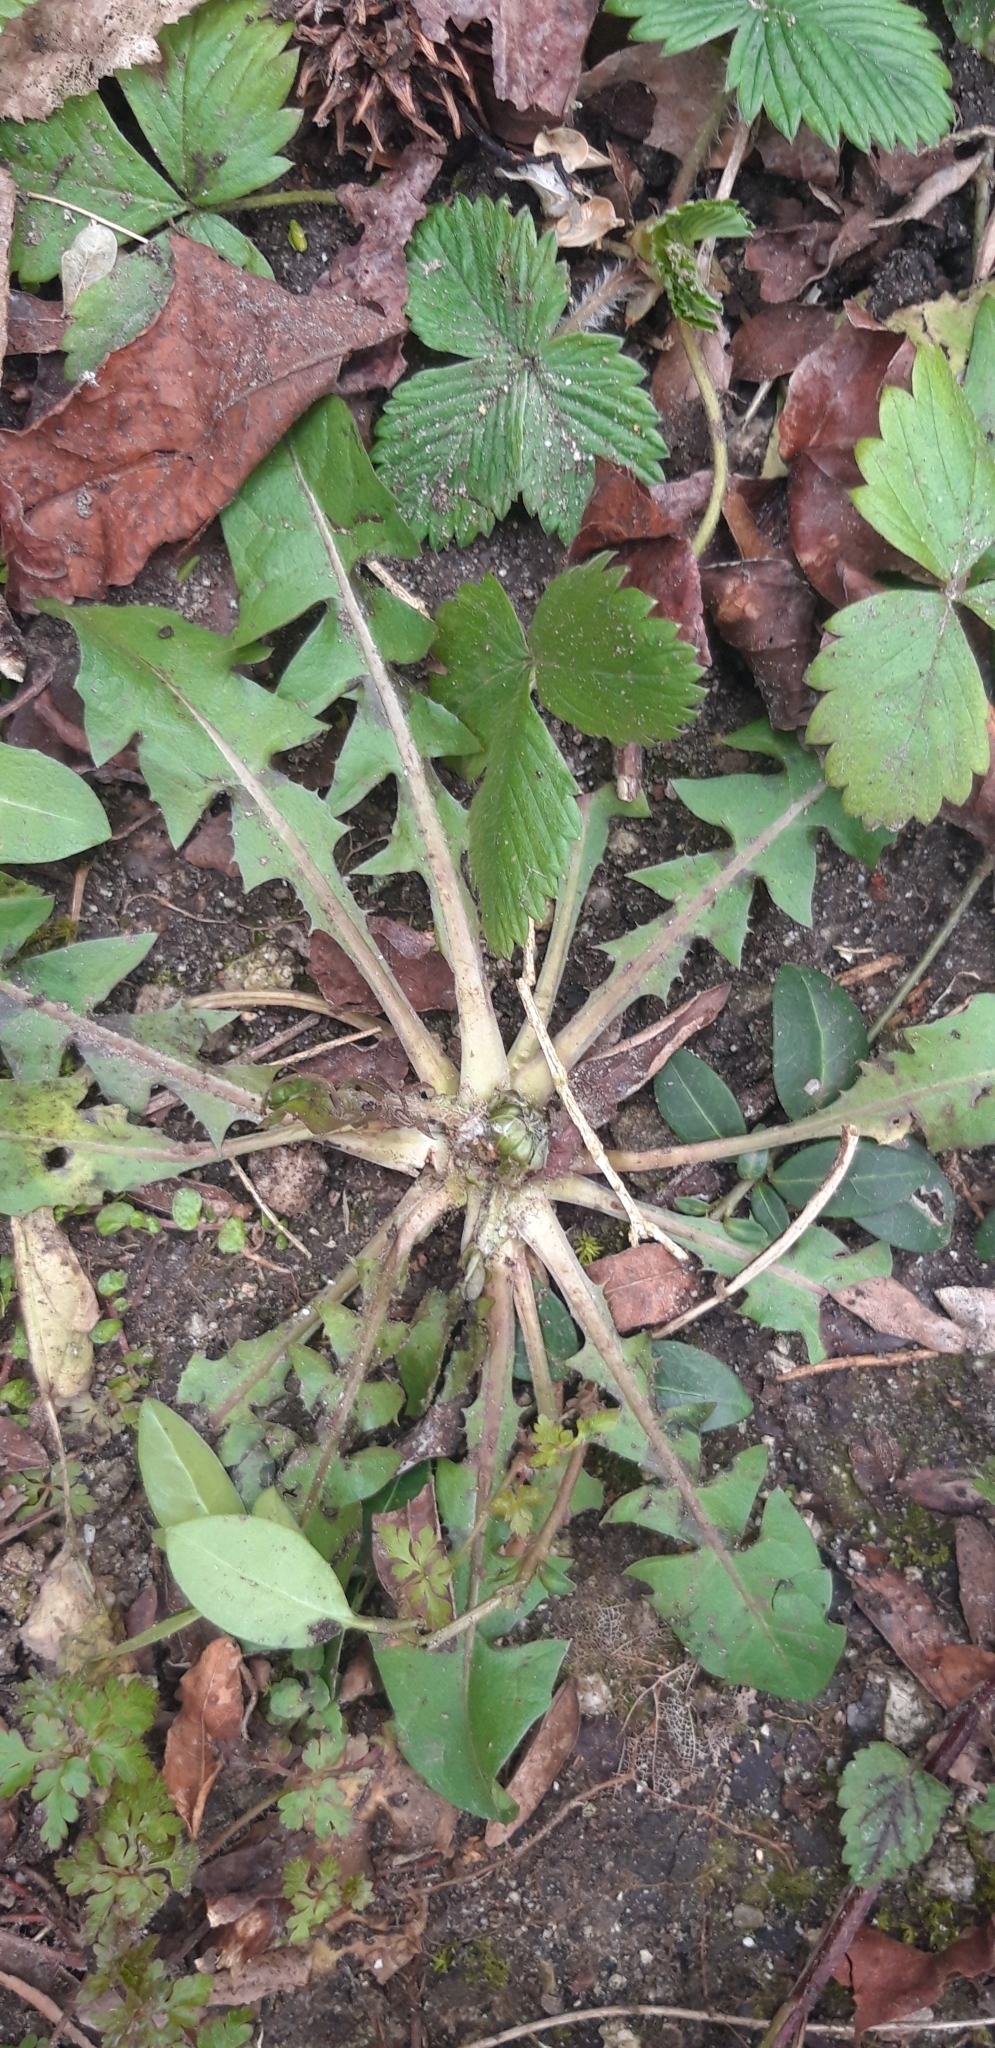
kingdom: Plantae
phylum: Tracheophyta
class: Magnoliopsida
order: Asterales
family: Asteraceae
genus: Taraxacum
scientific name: Taraxacum officinale
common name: Common dandelion
